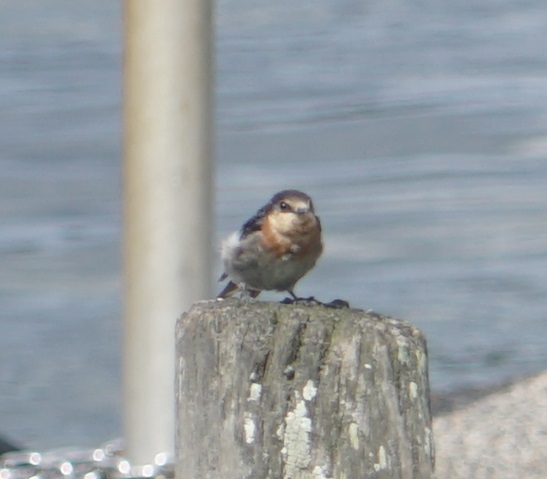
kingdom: Animalia
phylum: Chordata
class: Aves
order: Passeriformes
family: Hirundinidae
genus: Hirundo
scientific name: Hirundo neoxena
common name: Welcome swallow
